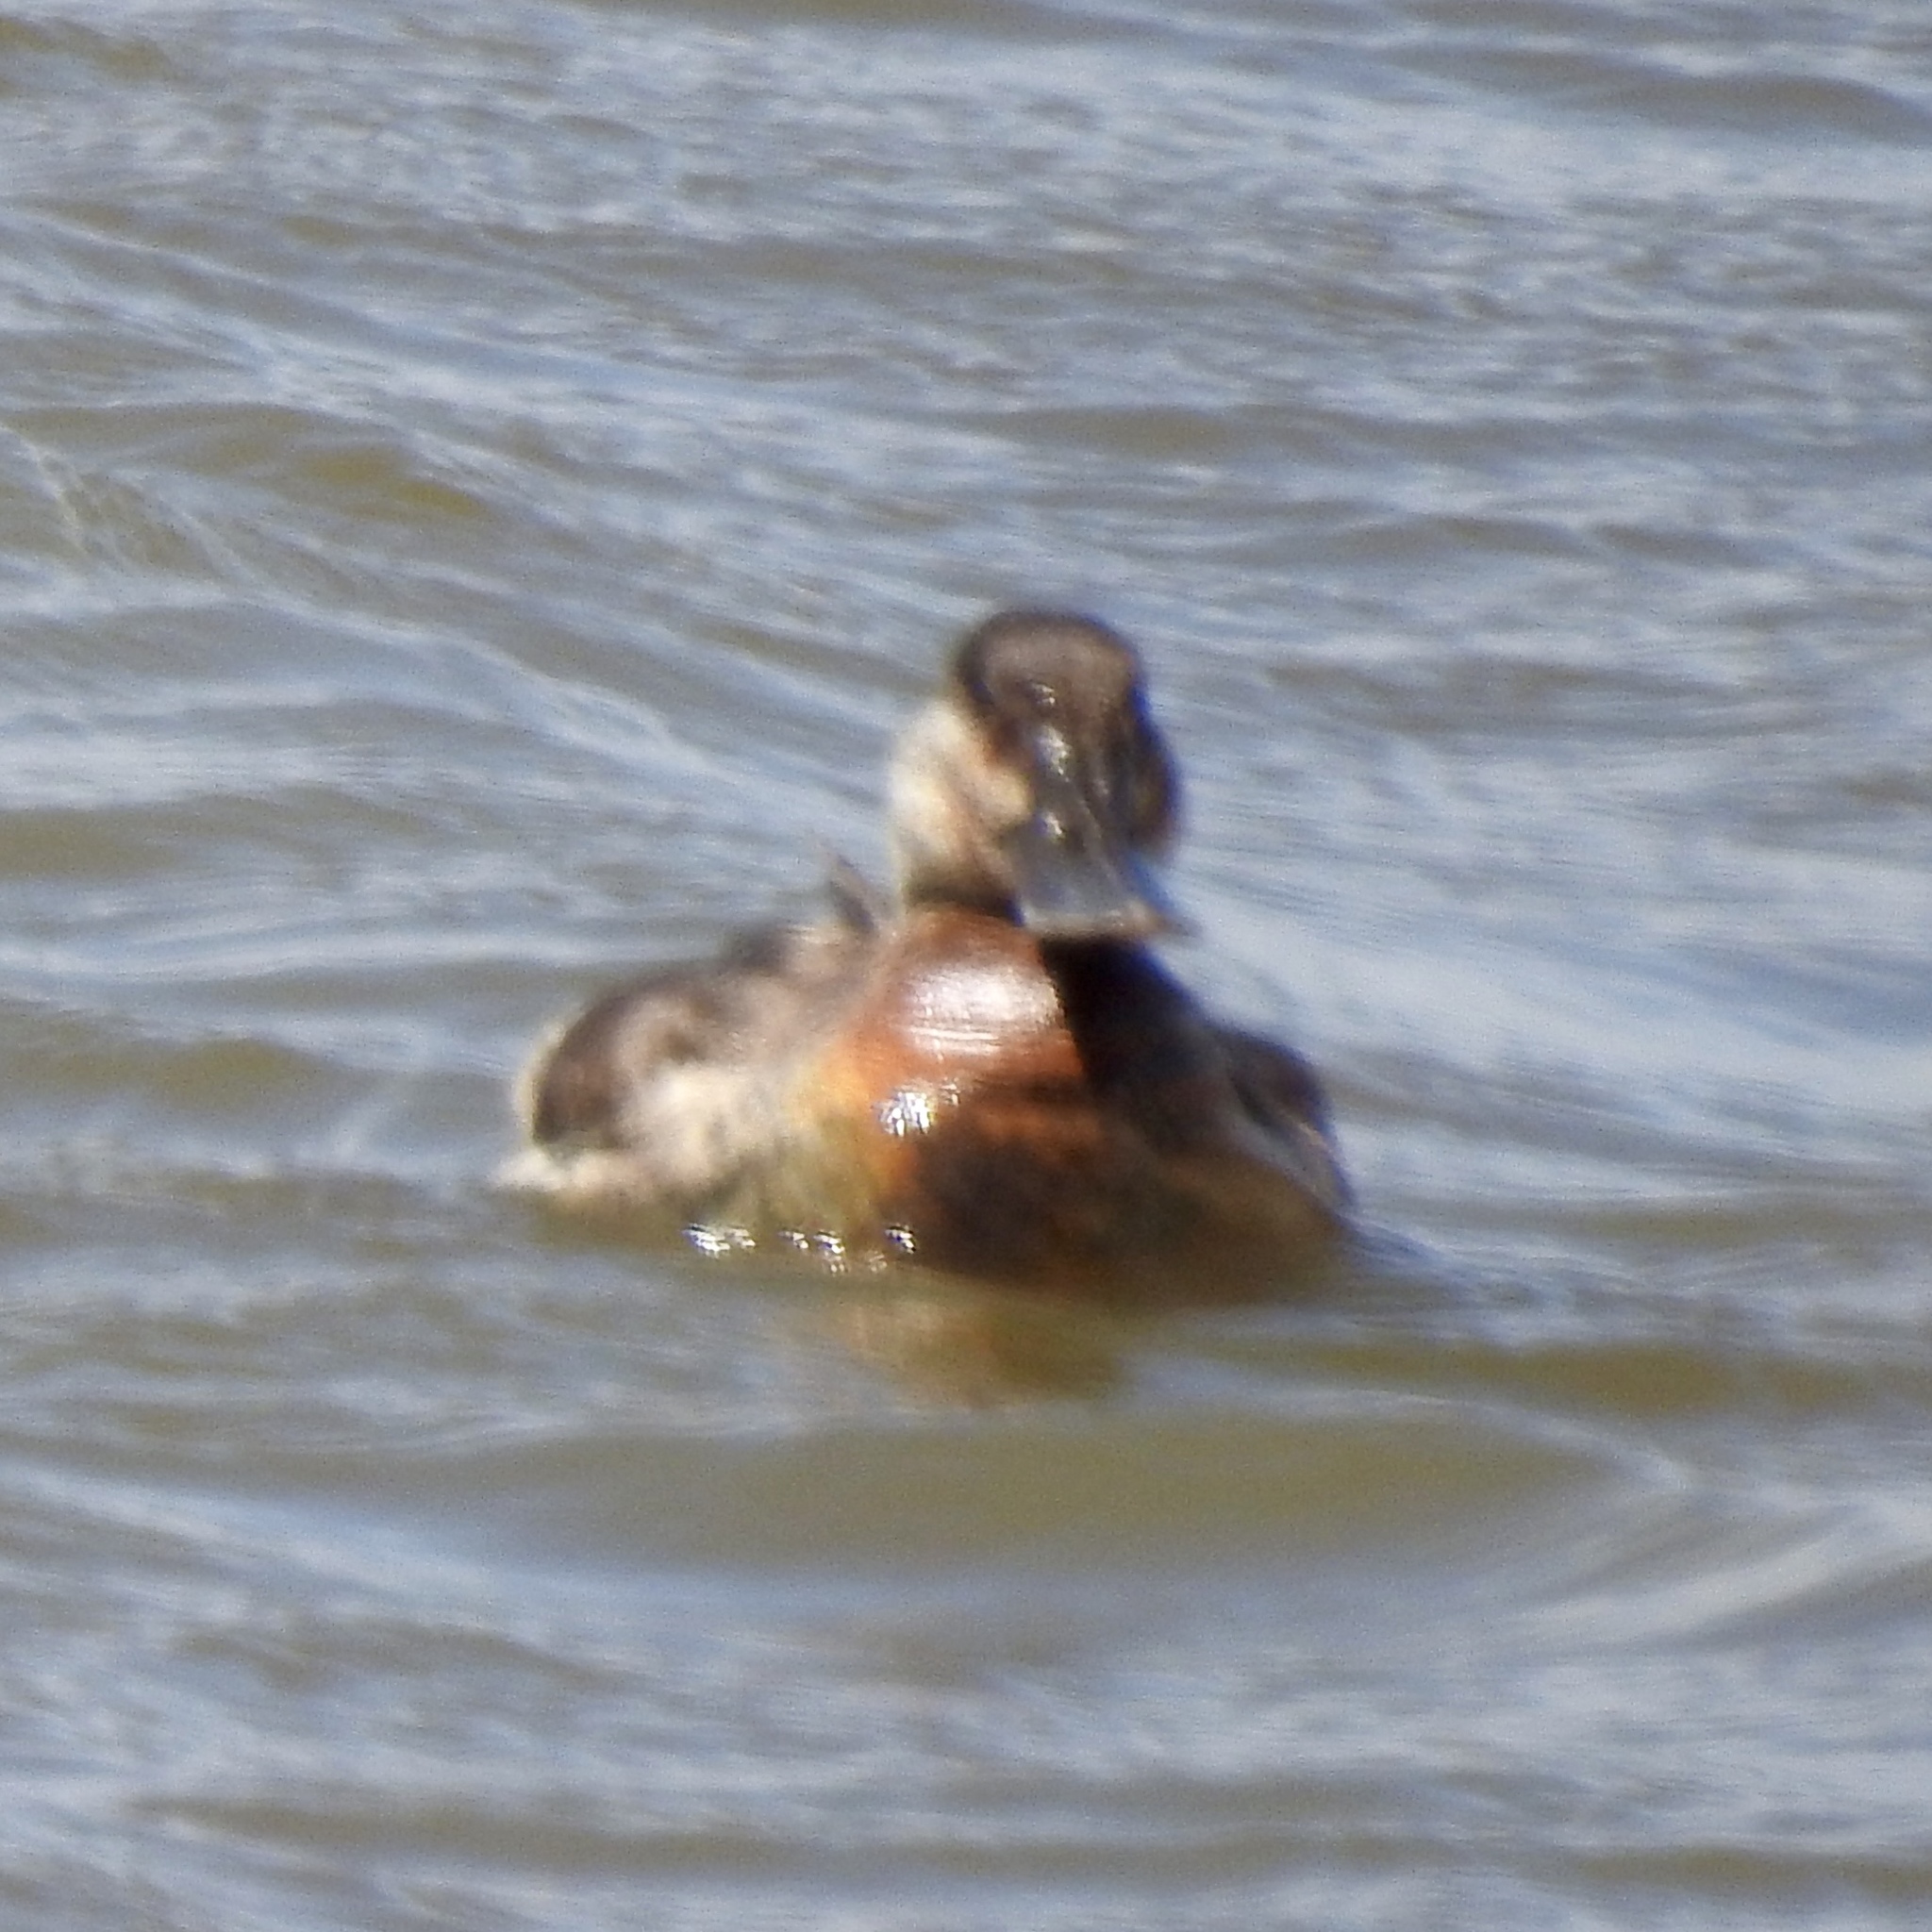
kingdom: Animalia
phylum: Chordata
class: Aves
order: Anseriformes
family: Anatidae
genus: Oxyura
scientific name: Oxyura jamaicensis
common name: Ruddy duck
